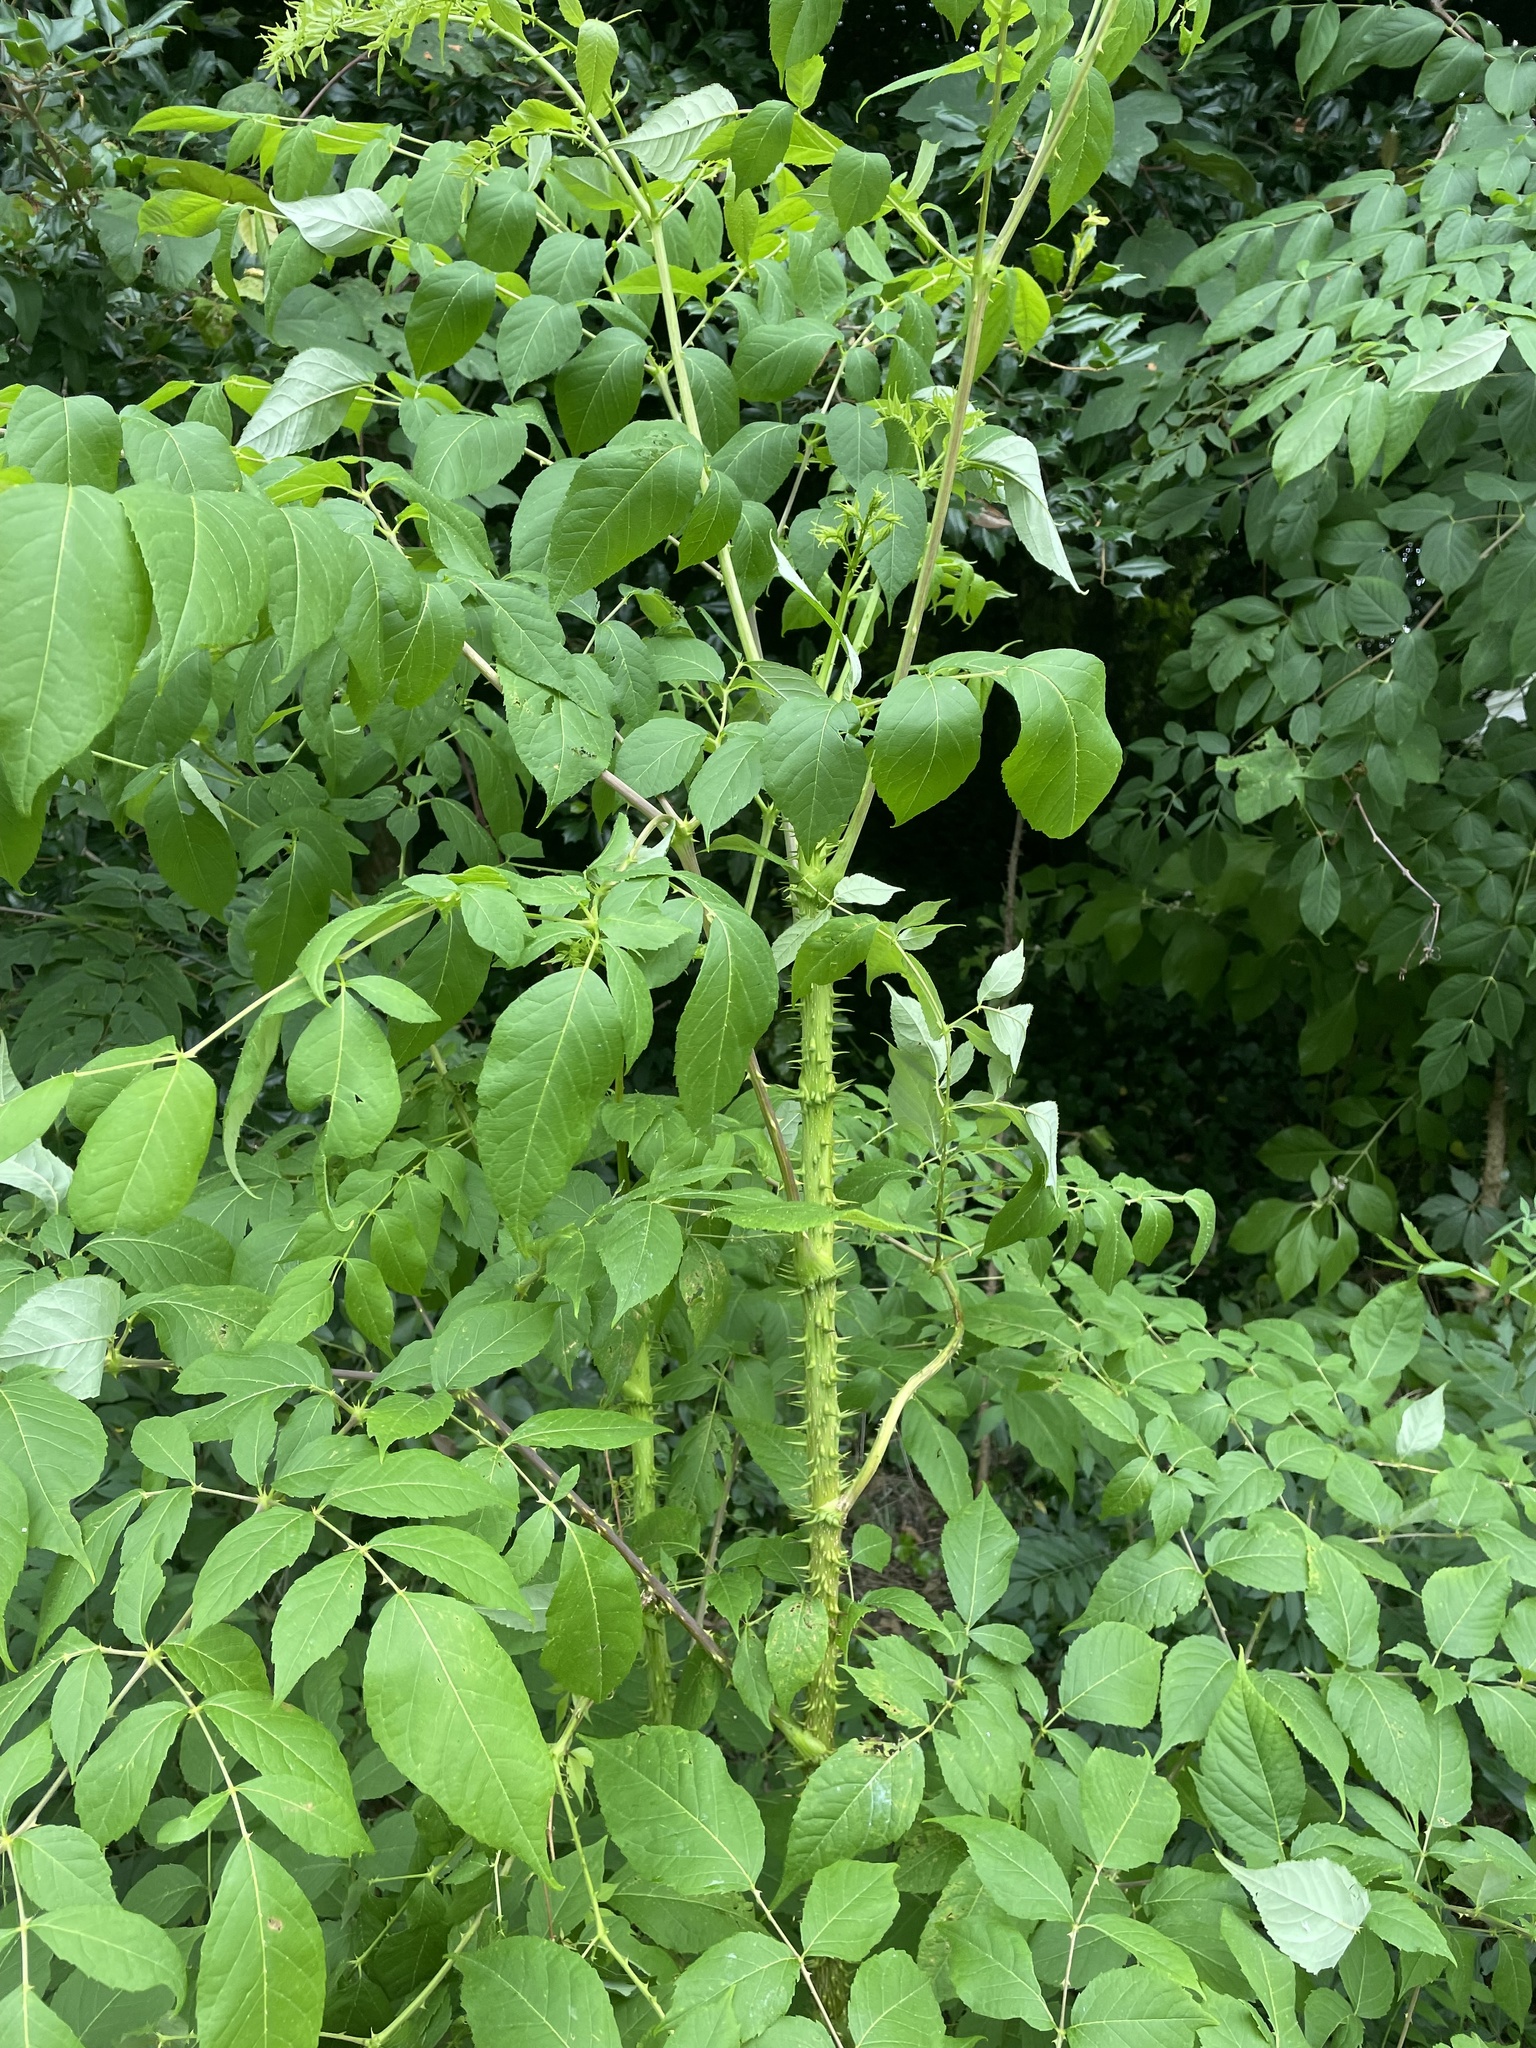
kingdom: Plantae
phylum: Tracheophyta
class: Magnoliopsida
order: Apiales
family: Araliaceae
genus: Aralia
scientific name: Aralia spinosa
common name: Hercules'-club
